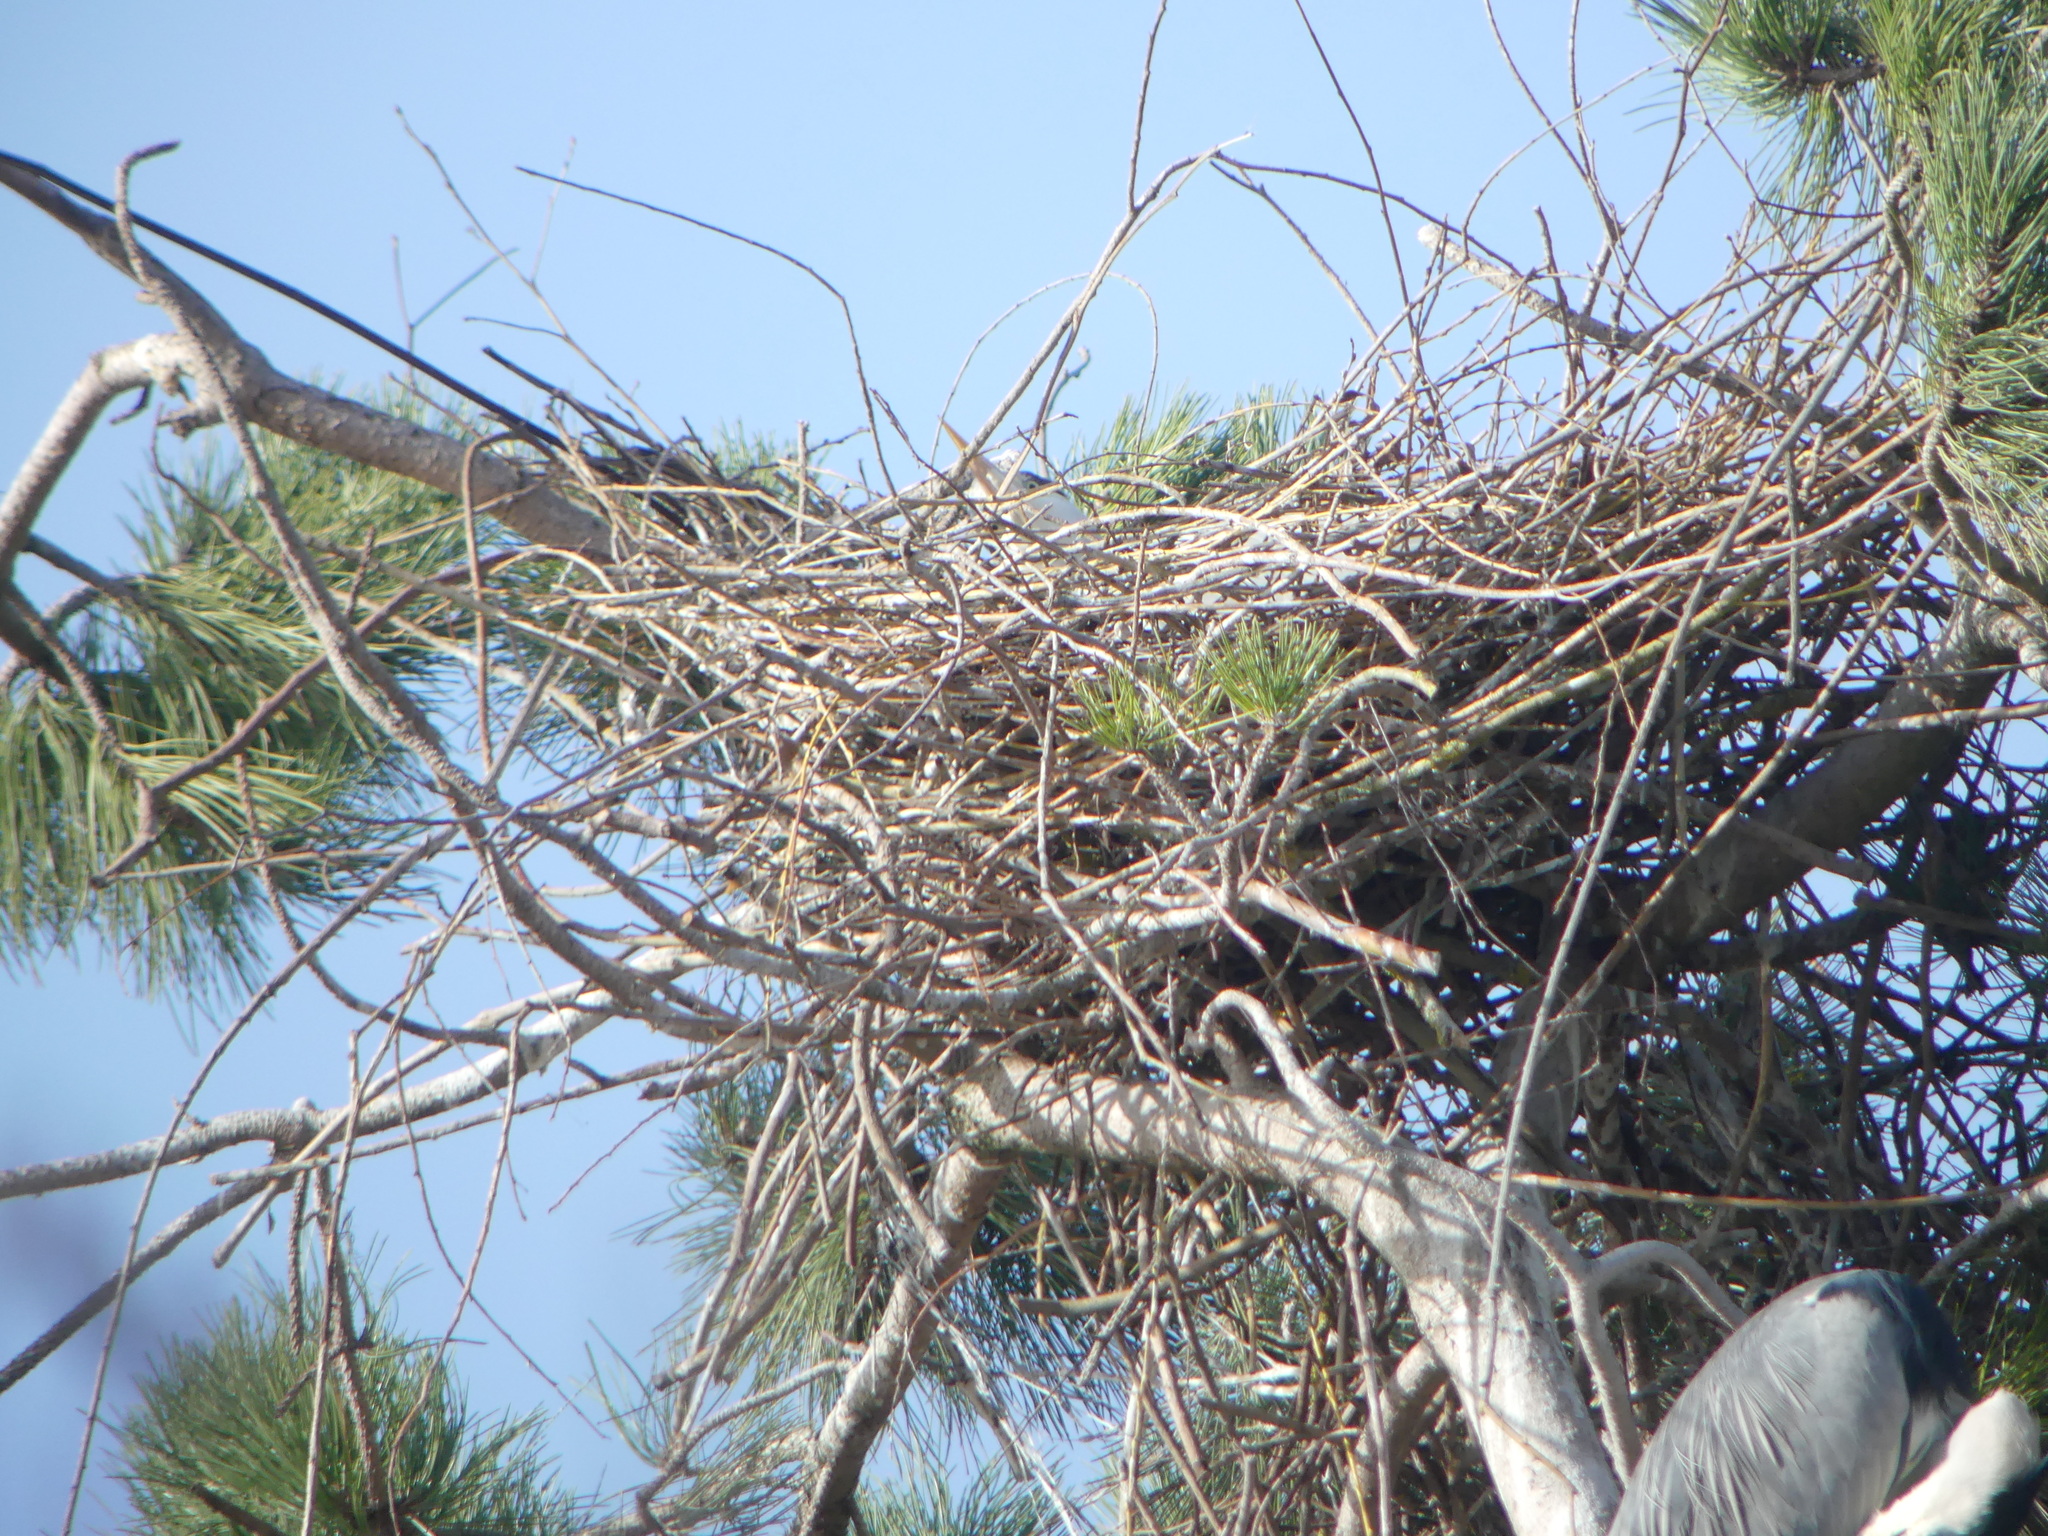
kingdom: Animalia
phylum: Chordata
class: Aves
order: Pelecaniformes
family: Ardeidae
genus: Ardea
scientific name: Ardea cinerea
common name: Grey heron
